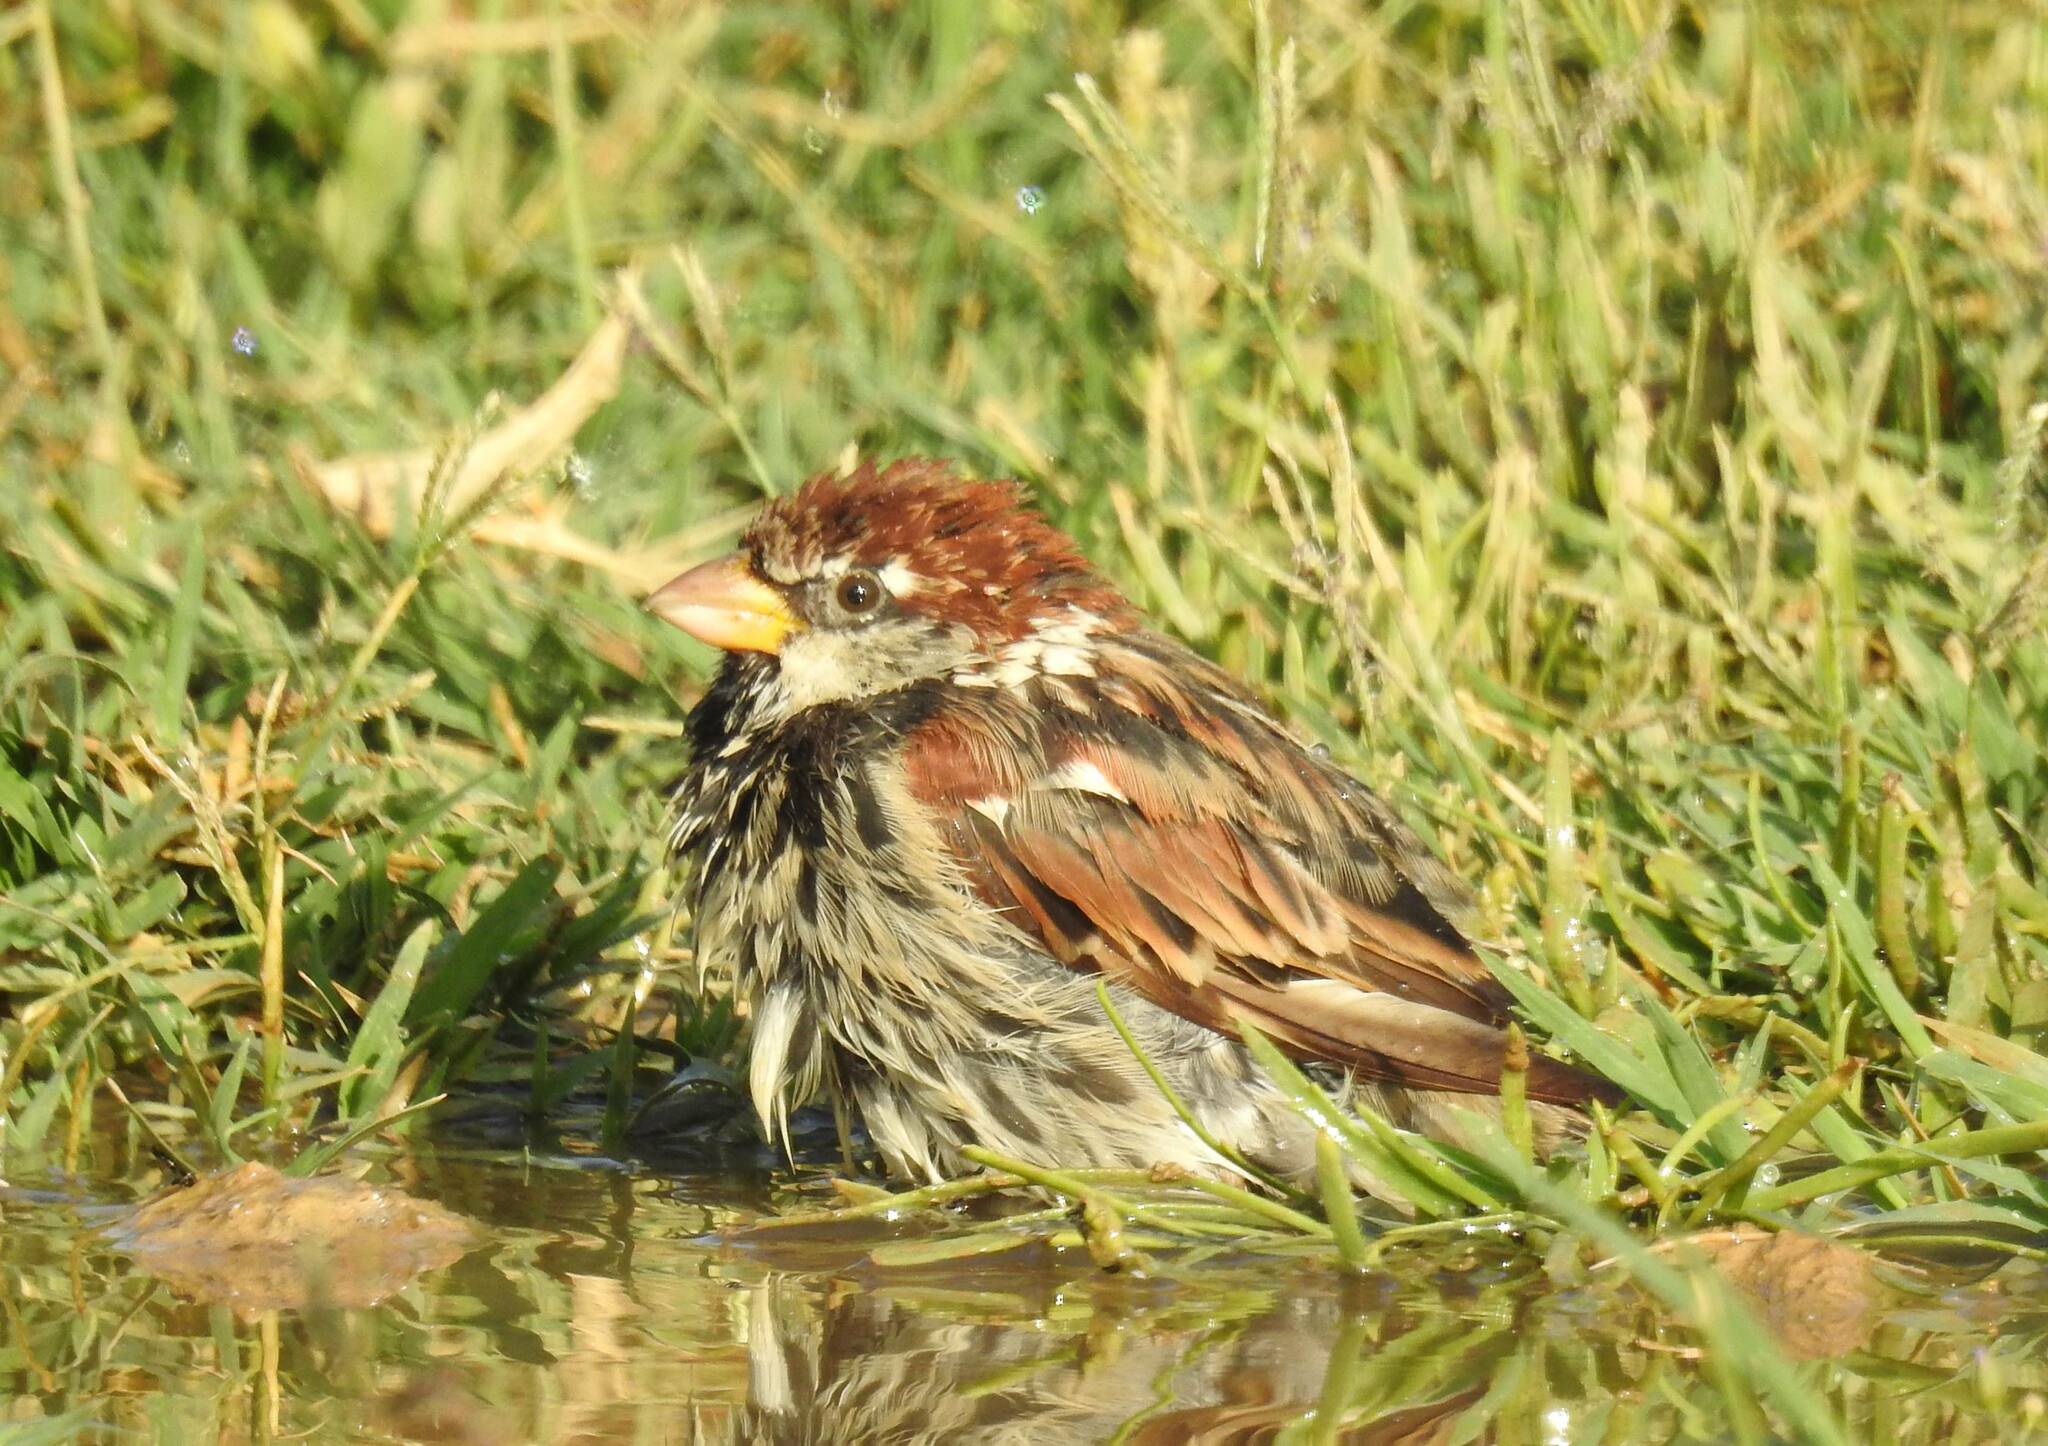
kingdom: Animalia
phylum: Chordata
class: Aves
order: Passeriformes
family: Passeridae
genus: Passer
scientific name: Passer hispaniolensis
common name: Spanish sparrow
